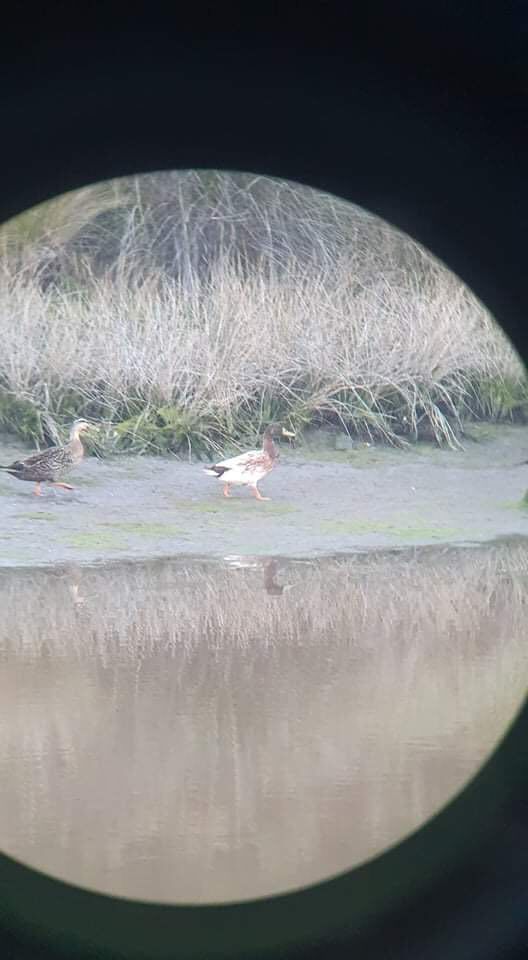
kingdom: Animalia
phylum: Chordata
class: Aves
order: Anseriformes
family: Anatidae
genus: Anas
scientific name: Anas platyrhynchos
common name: Mallard
